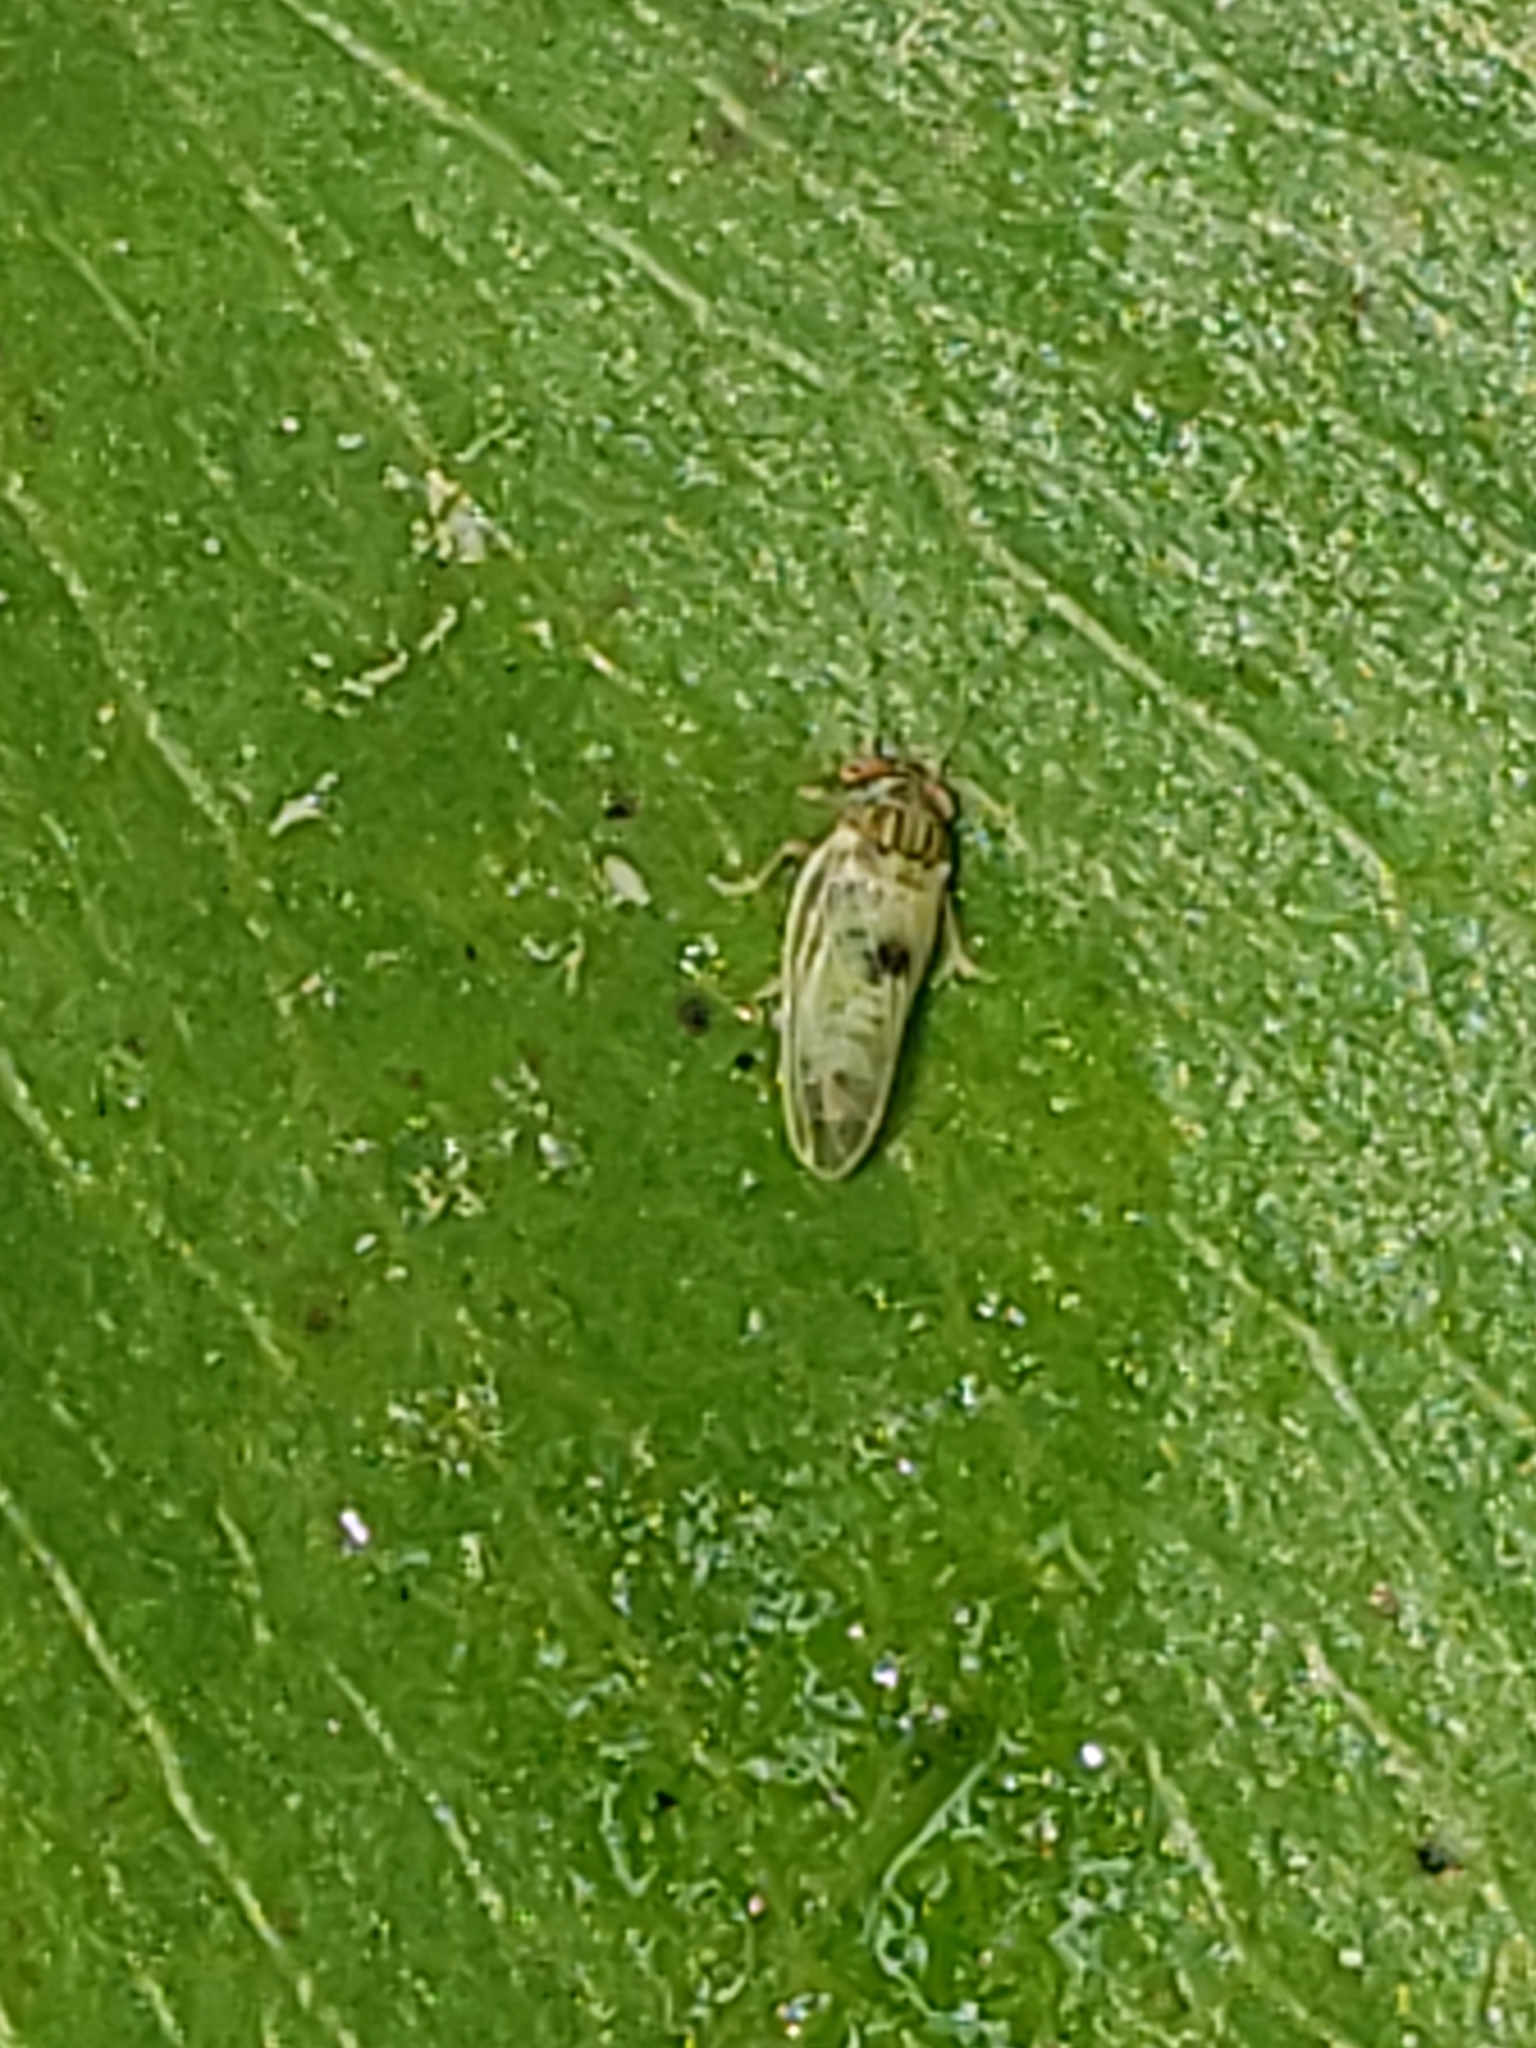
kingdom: Animalia
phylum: Arthropoda
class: Insecta
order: Hemiptera
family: Psyllidae
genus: Cacopsylla
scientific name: Cacopsylla pyricola
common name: Pear psylla
